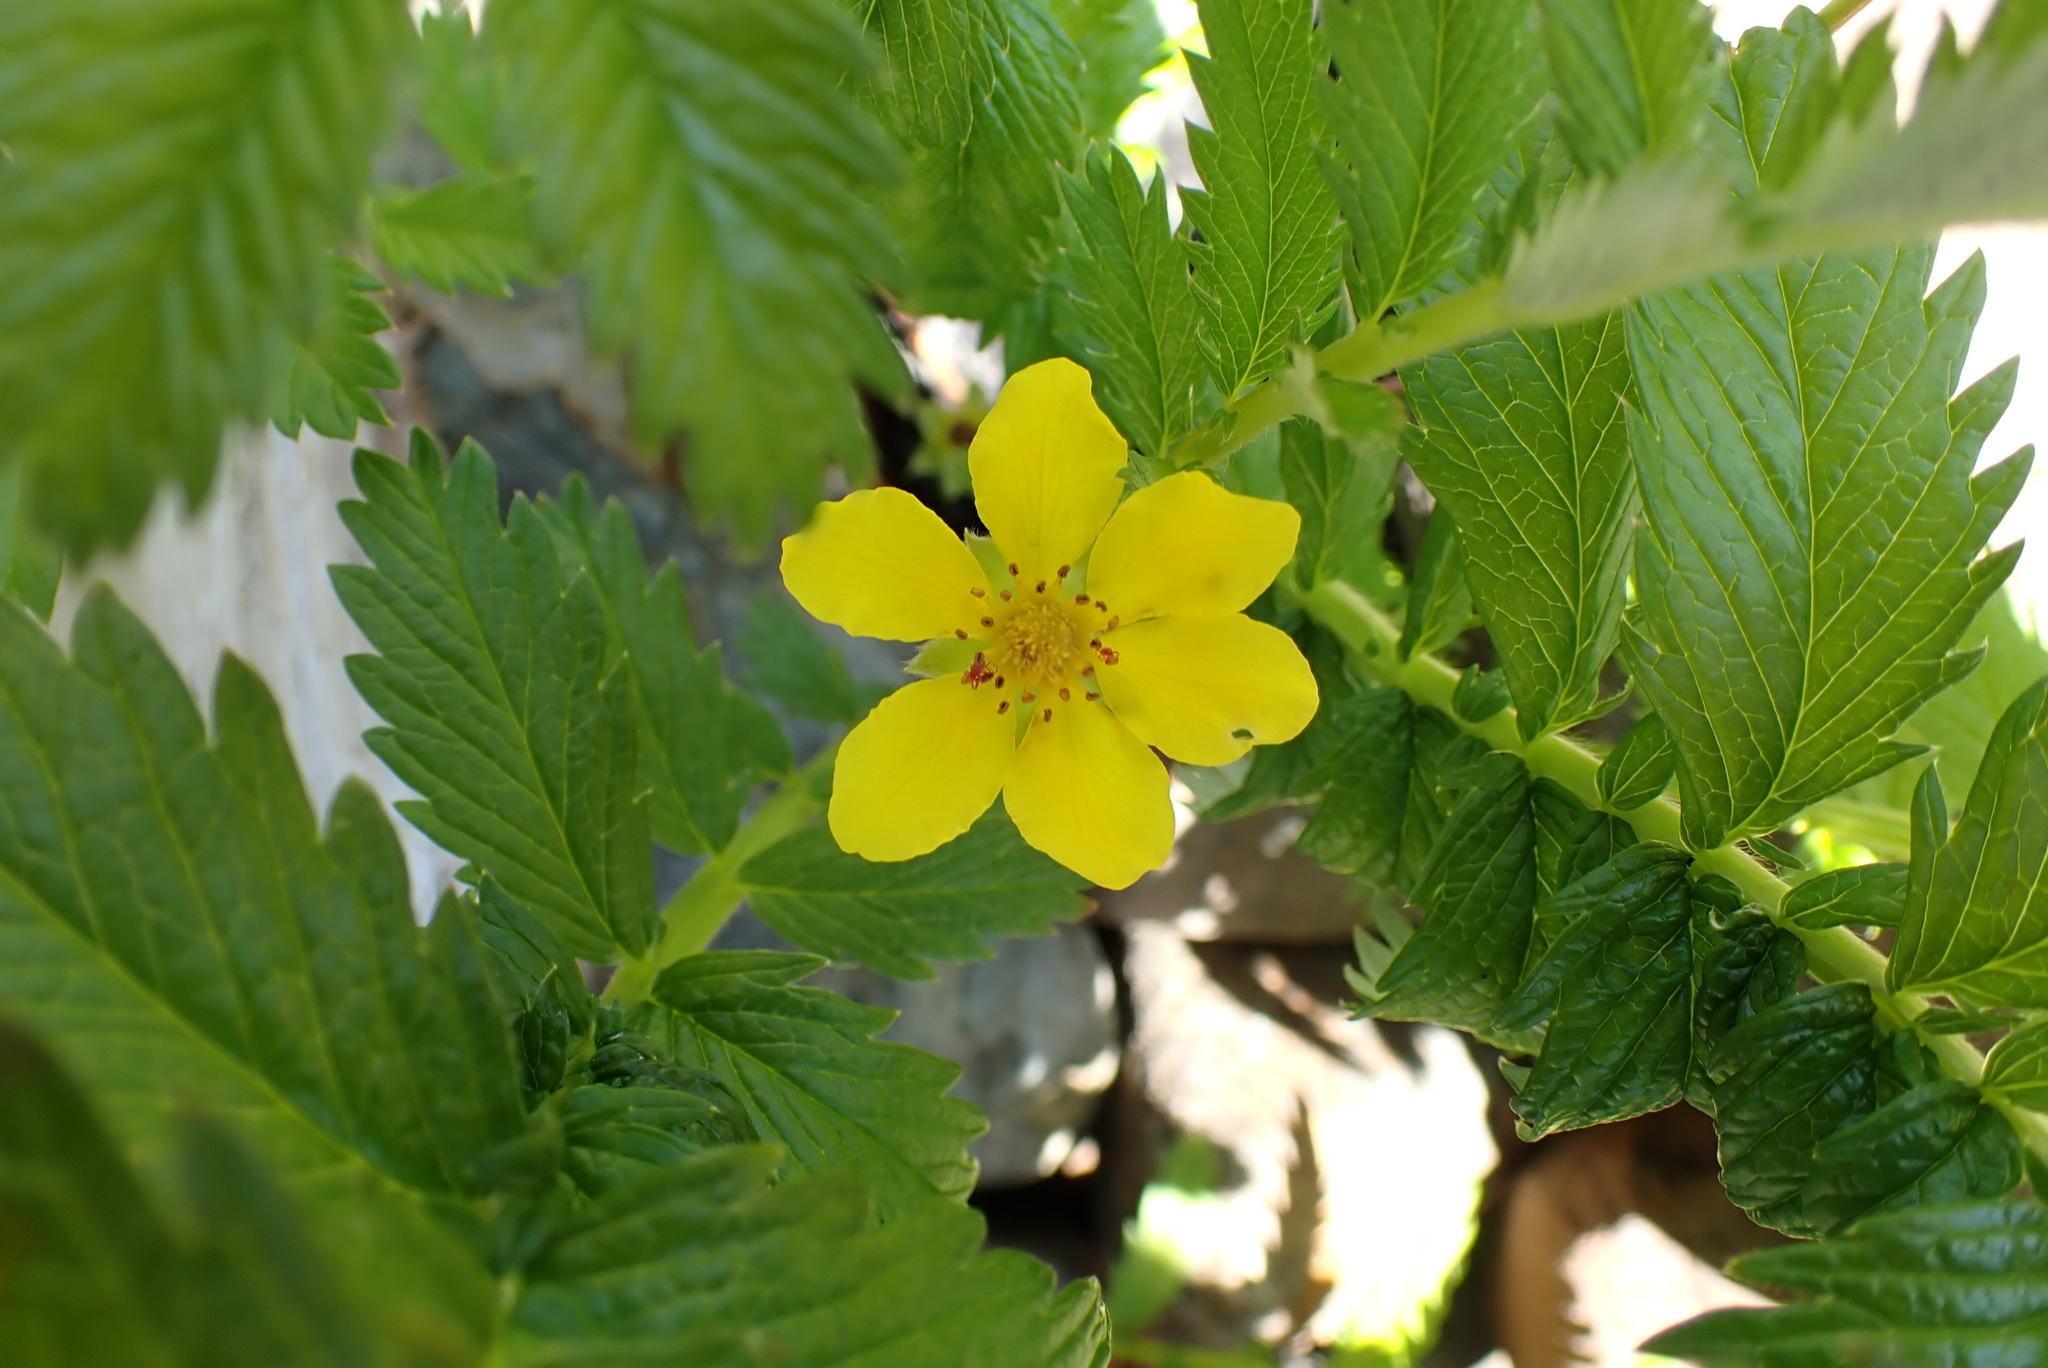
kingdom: Plantae
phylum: Tracheophyta
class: Magnoliopsida
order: Rosales
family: Rosaceae
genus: Argentina
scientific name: Argentina anserina
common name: Common silverweed
